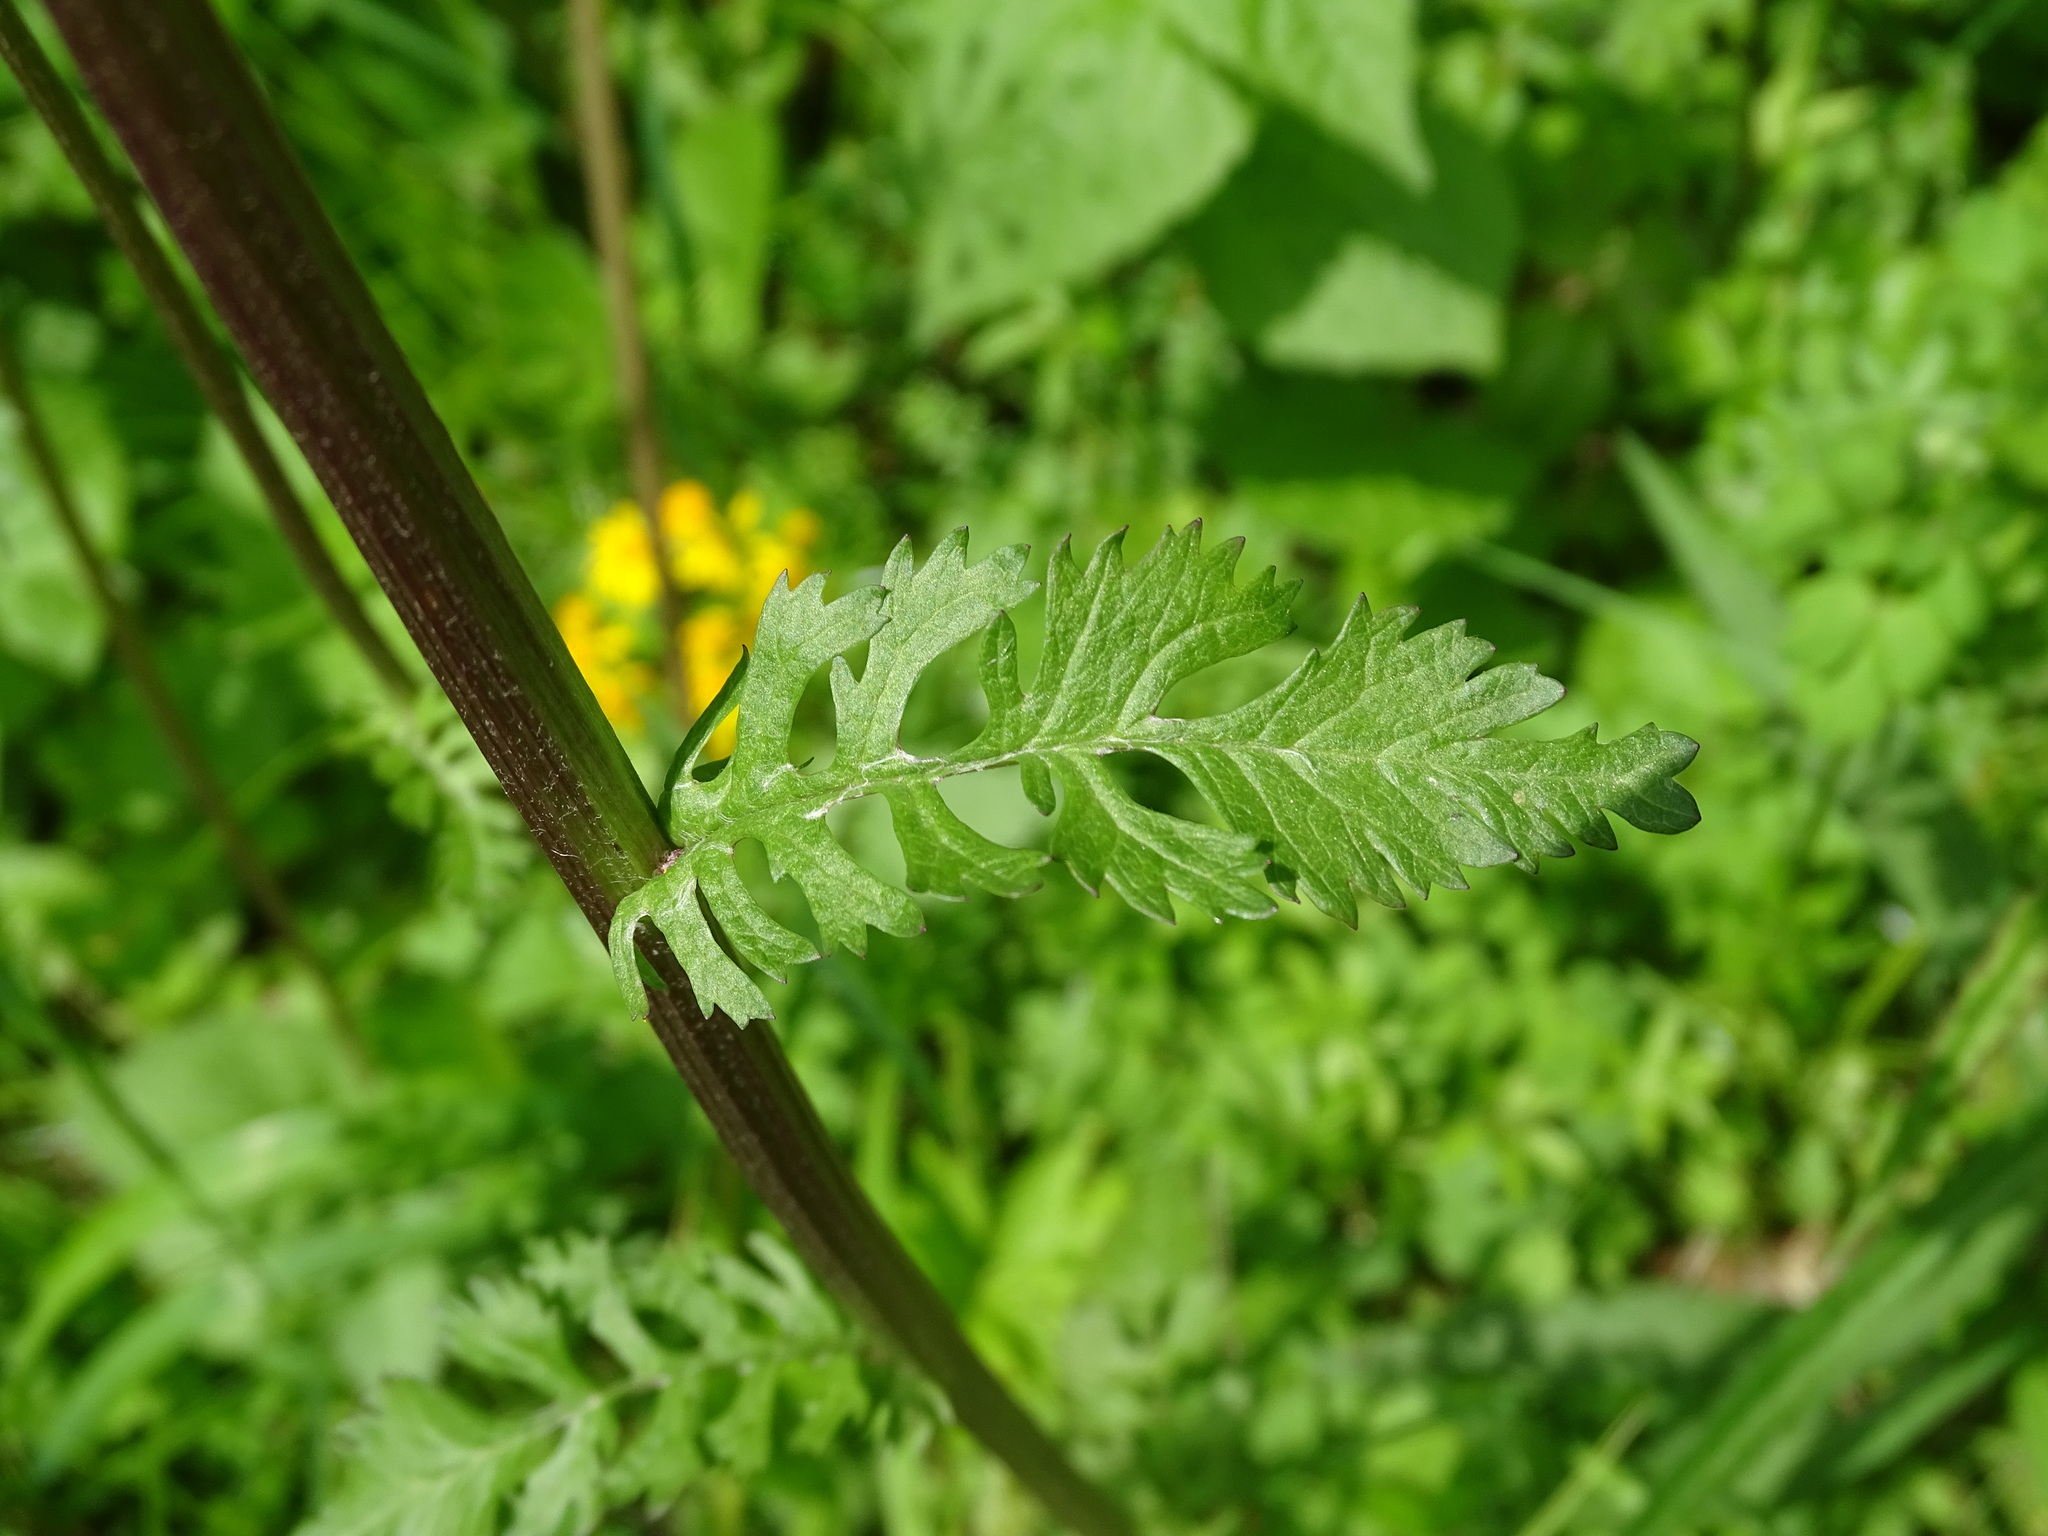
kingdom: Plantae
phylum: Tracheophyta
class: Magnoliopsida
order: Asterales
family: Asteraceae
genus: Packera
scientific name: Packera aurea
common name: Golden groundsel
